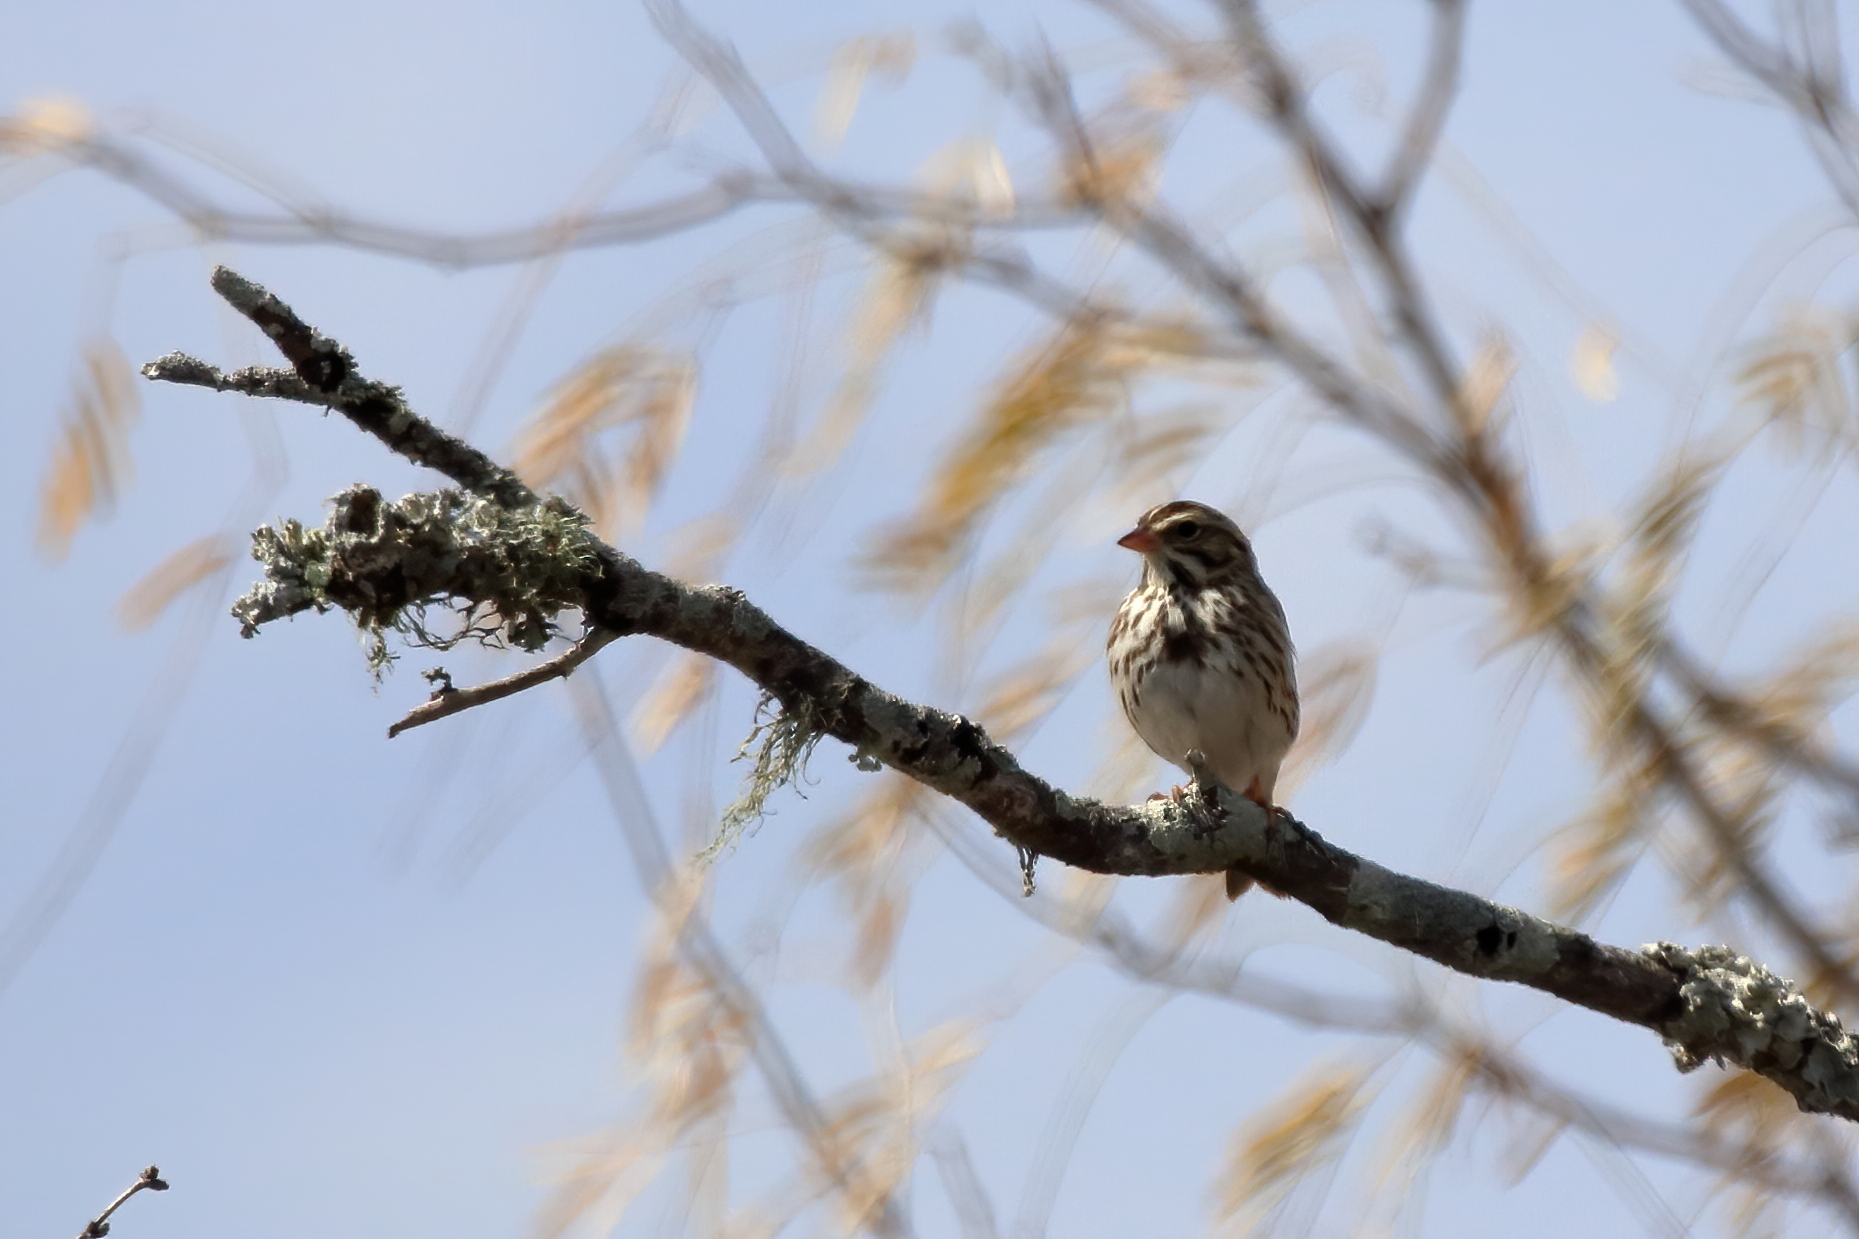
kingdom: Animalia
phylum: Chordata
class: Aves
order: Passeriformes
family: Passerellidae
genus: Passerculus
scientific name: Passerculus sandwichensis
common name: Savannah sparrow
